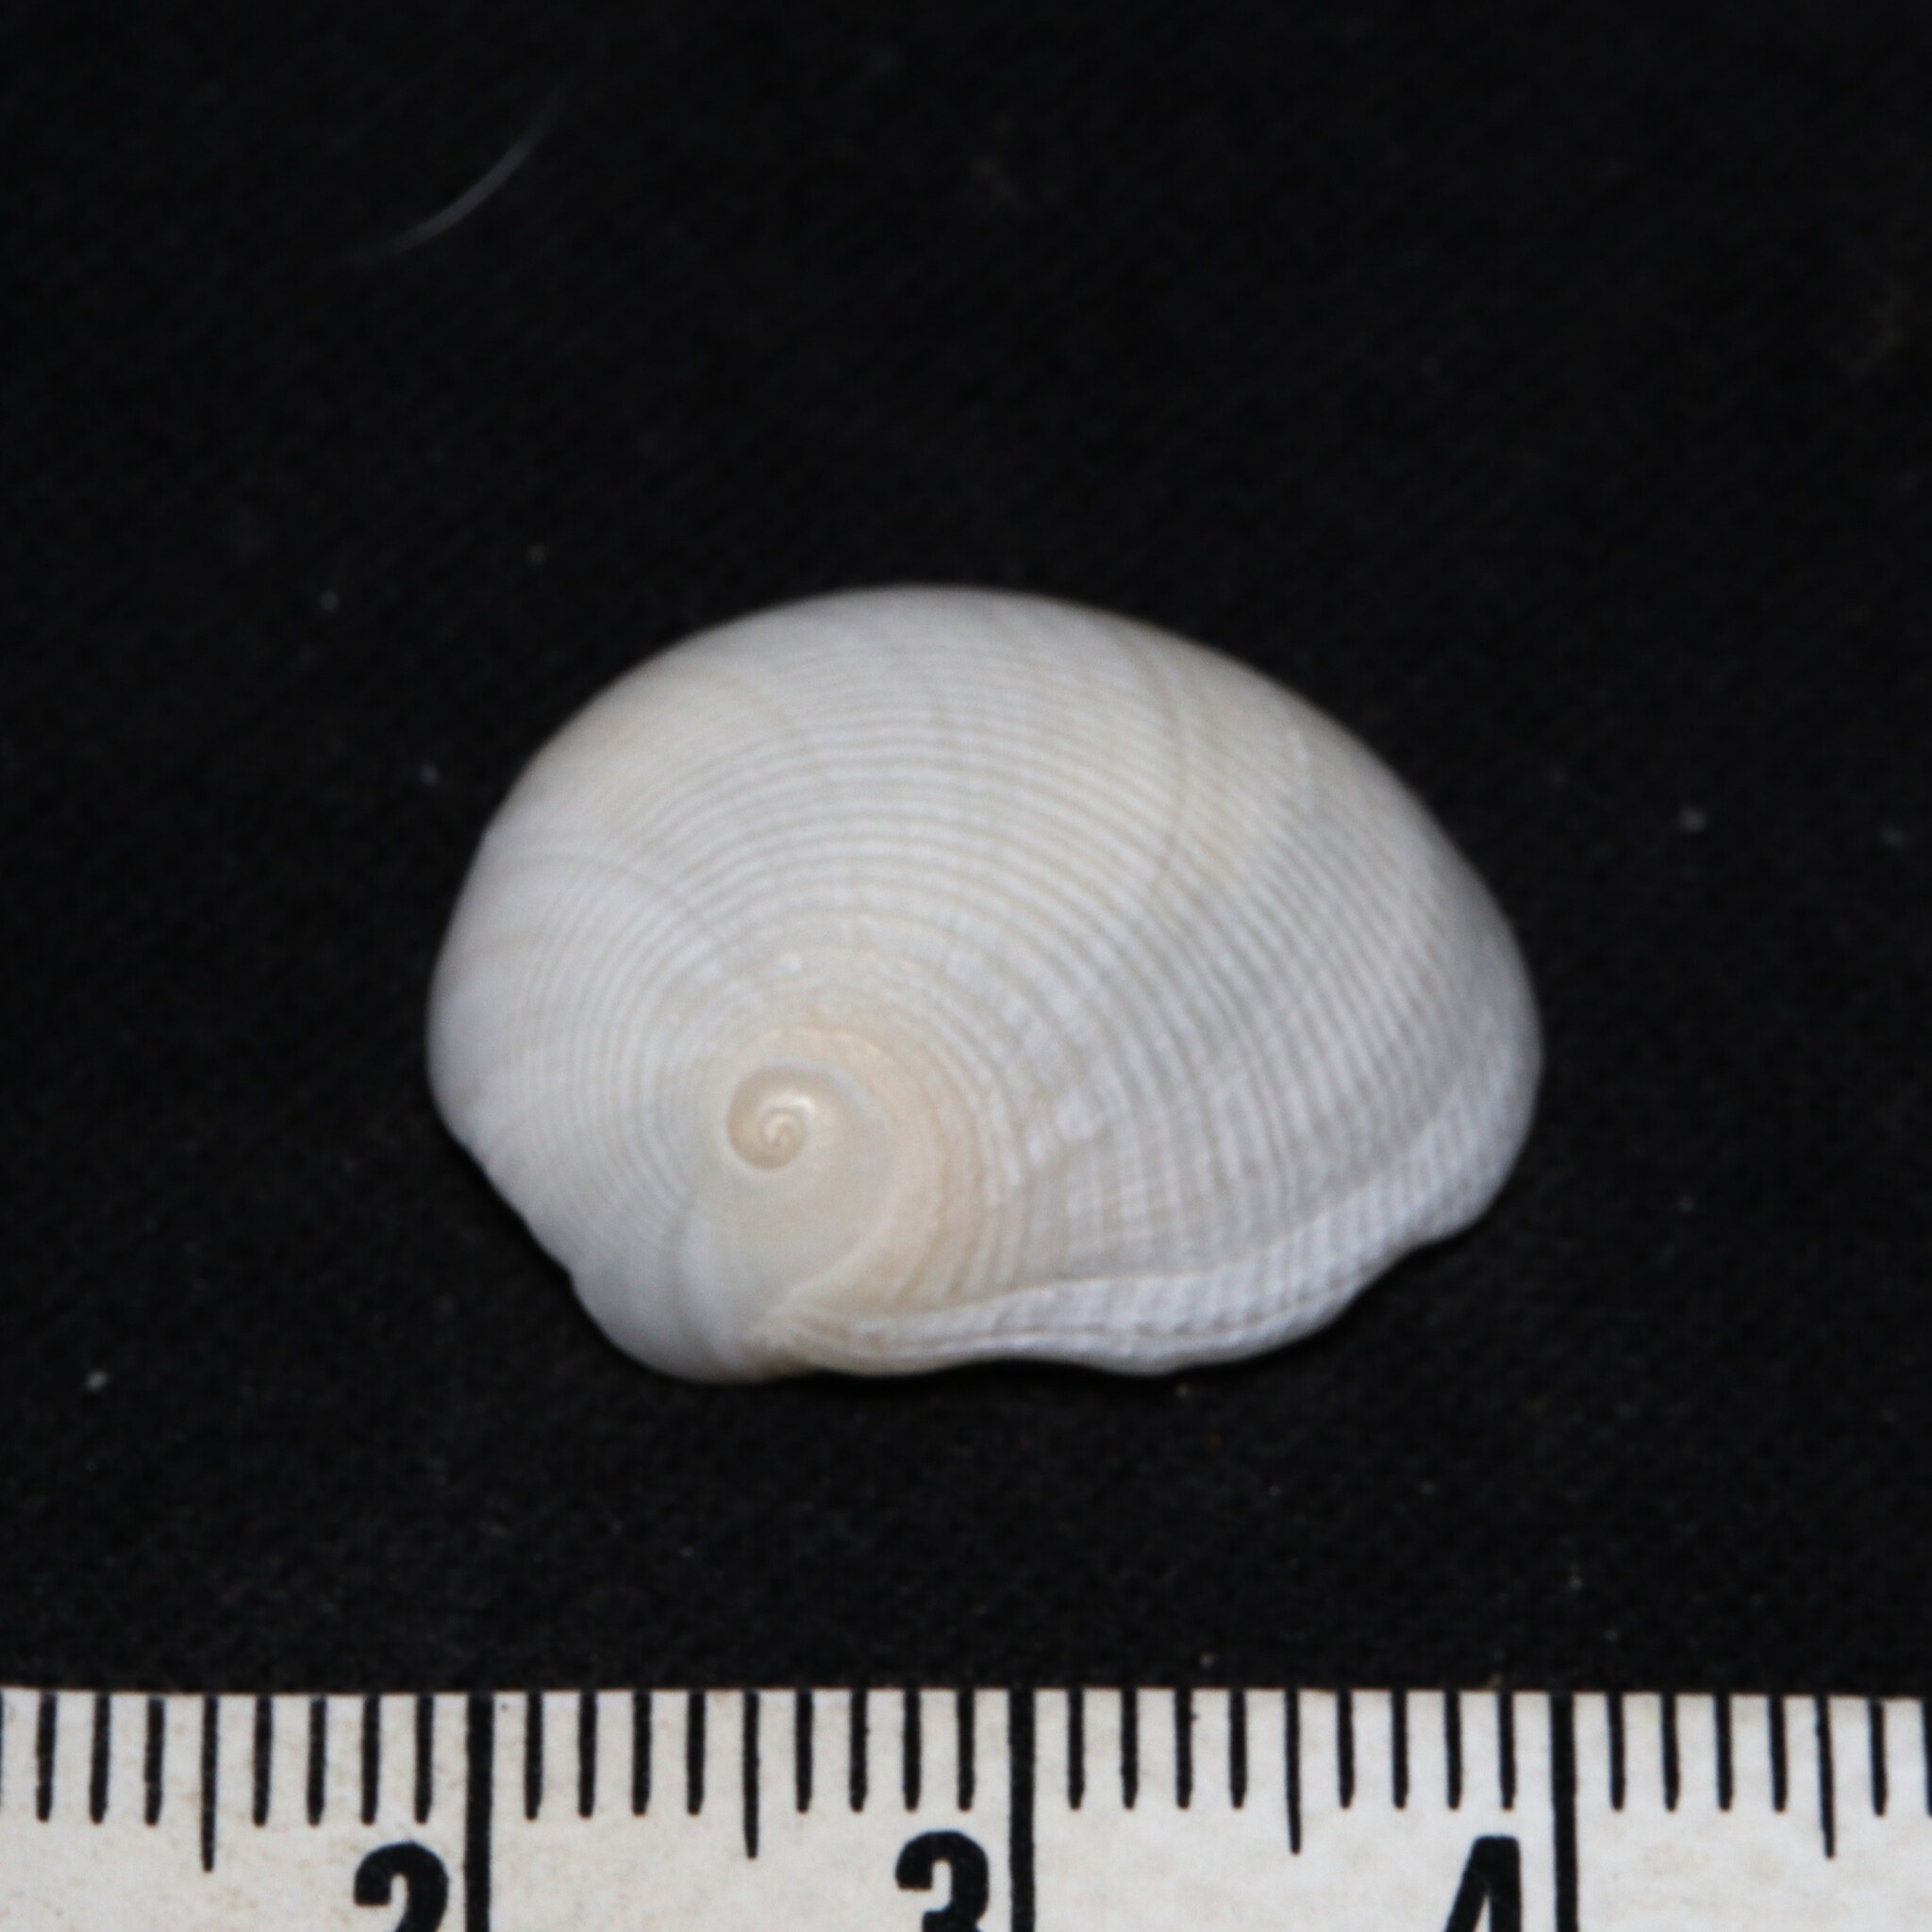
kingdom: Animalia
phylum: Mollusca
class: Gastropoda
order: Littorinimorpha
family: Naticidae
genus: Sinum
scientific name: Sinum perspectivum
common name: White baby ear
